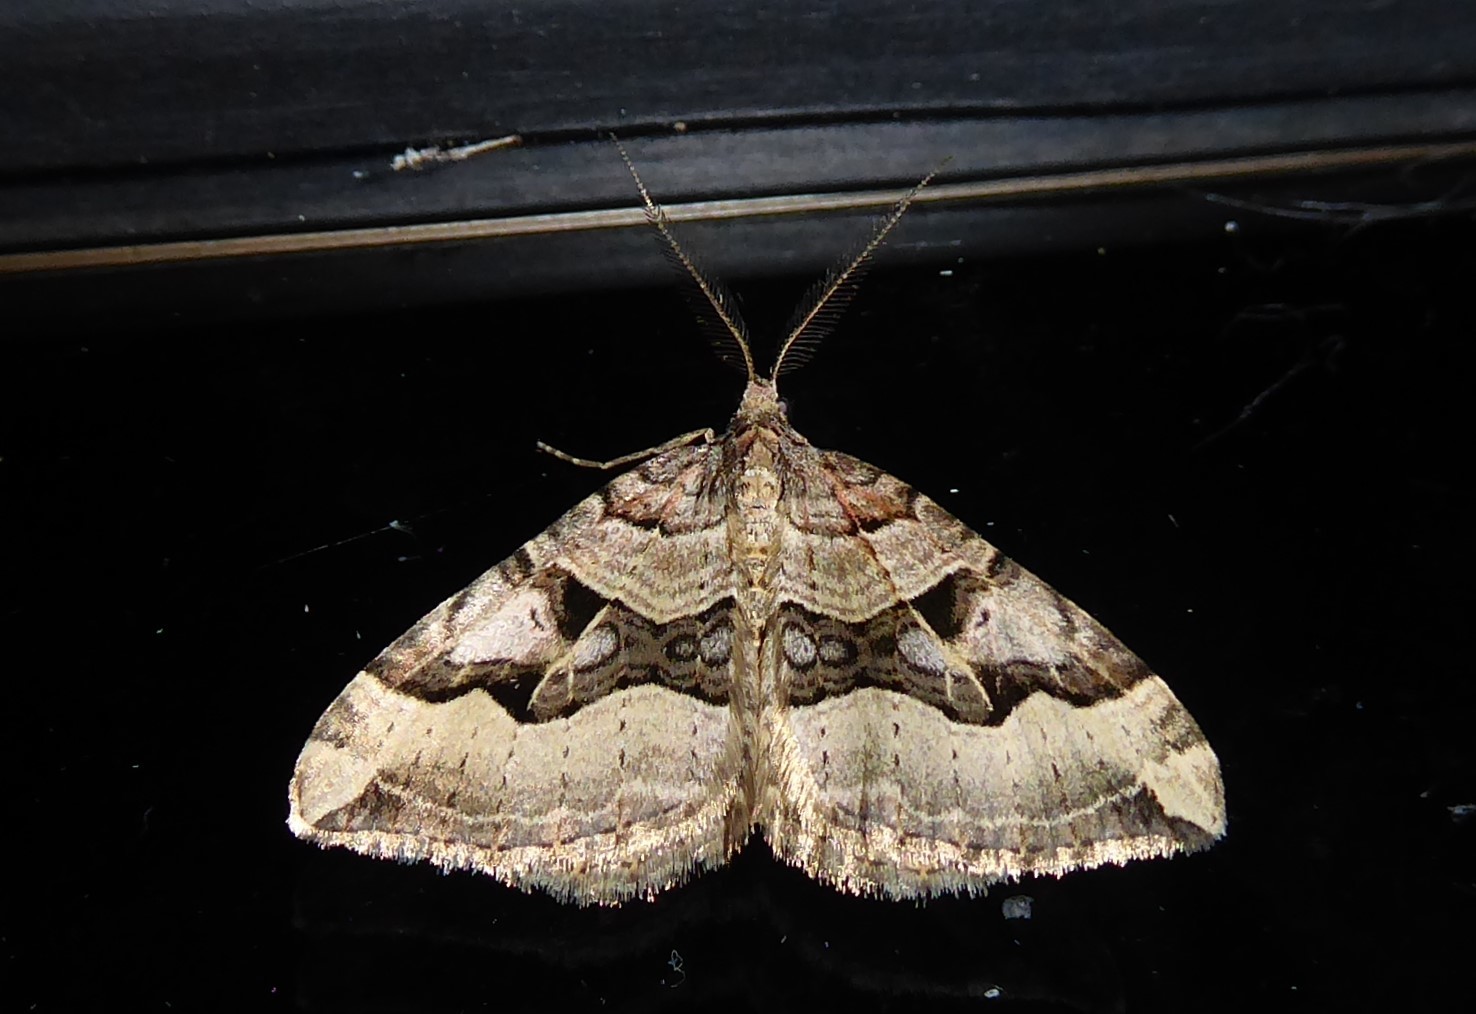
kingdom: Animalia
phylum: Arthropoda
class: Insecta
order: Lepidoptera
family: Geometridae
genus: Xanthorhoe
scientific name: Xanthorhoe semifissata
